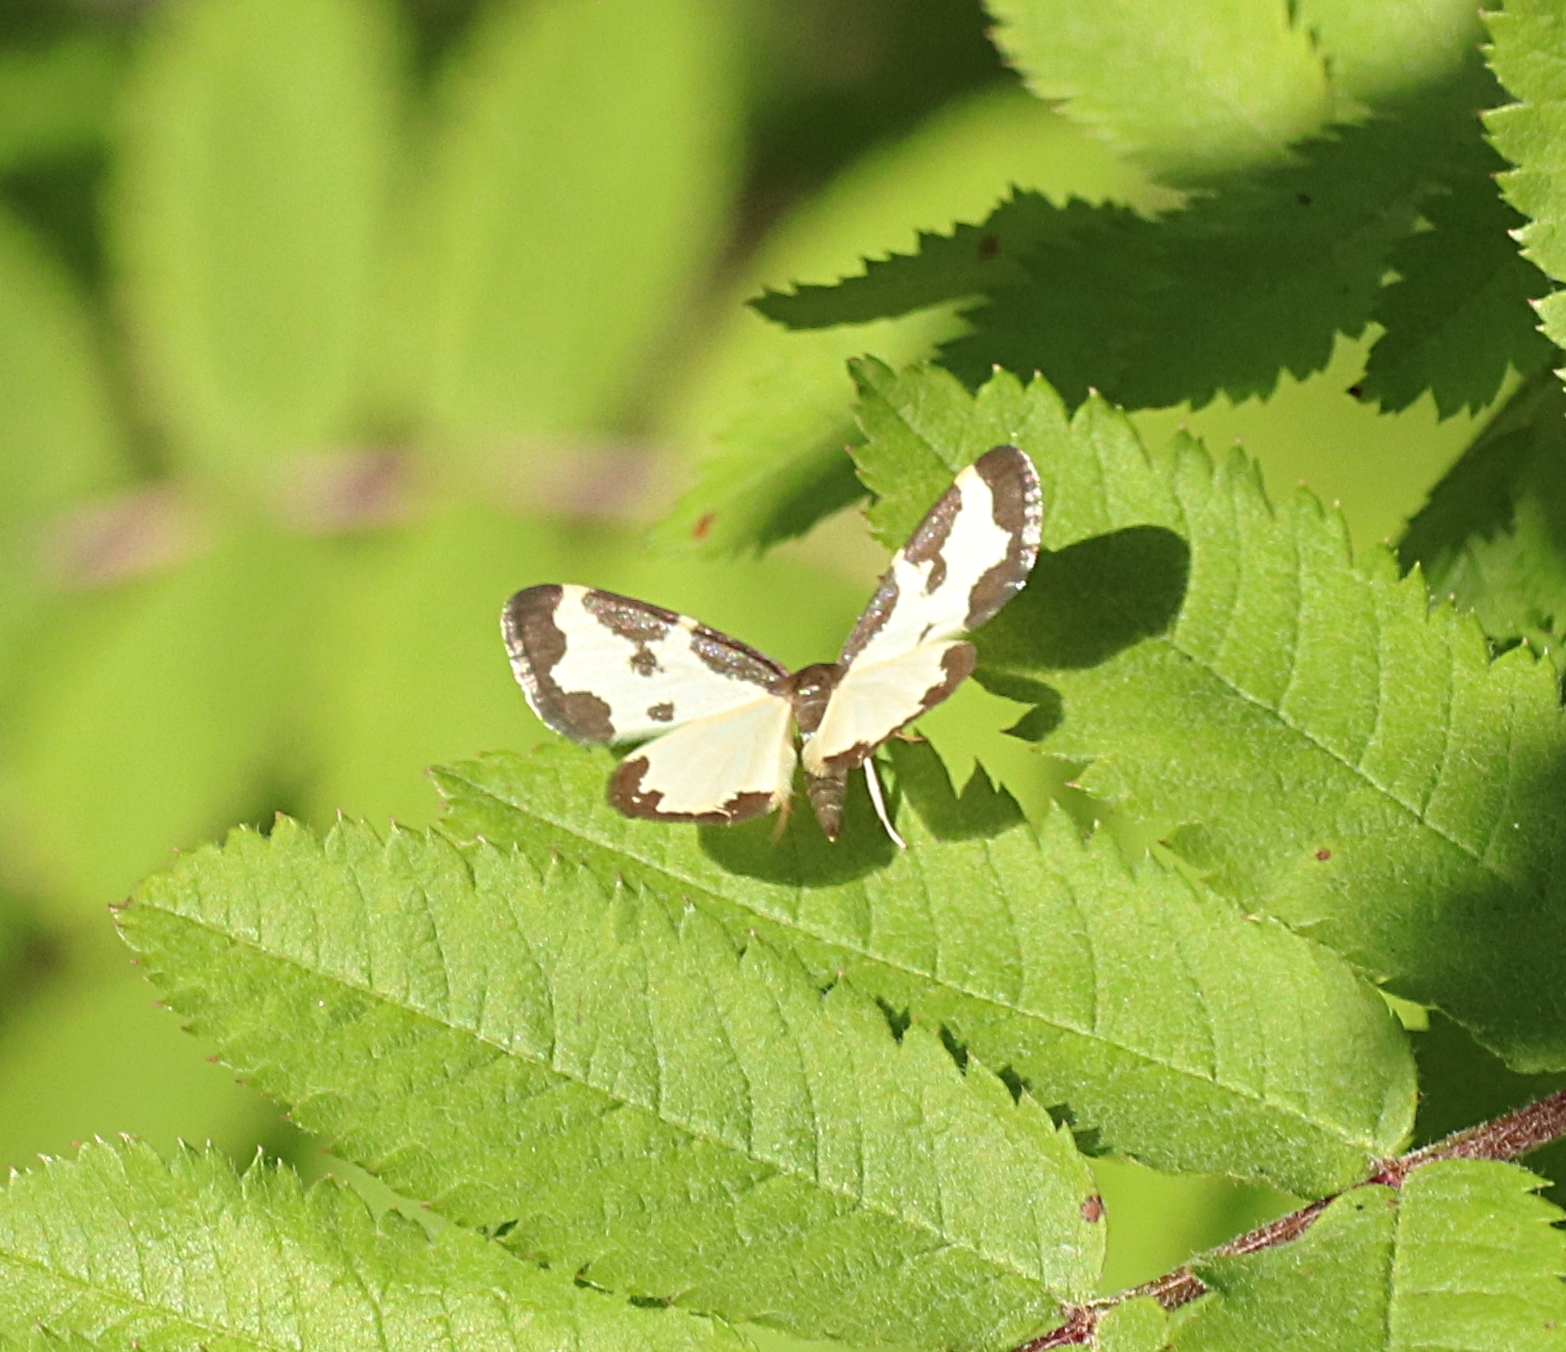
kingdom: Animalia
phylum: Arthropoda
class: Insecta
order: Lepidoptera
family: Geometridae
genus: Lomaspilis
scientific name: Lomaspilis marginata
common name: Clouded border
